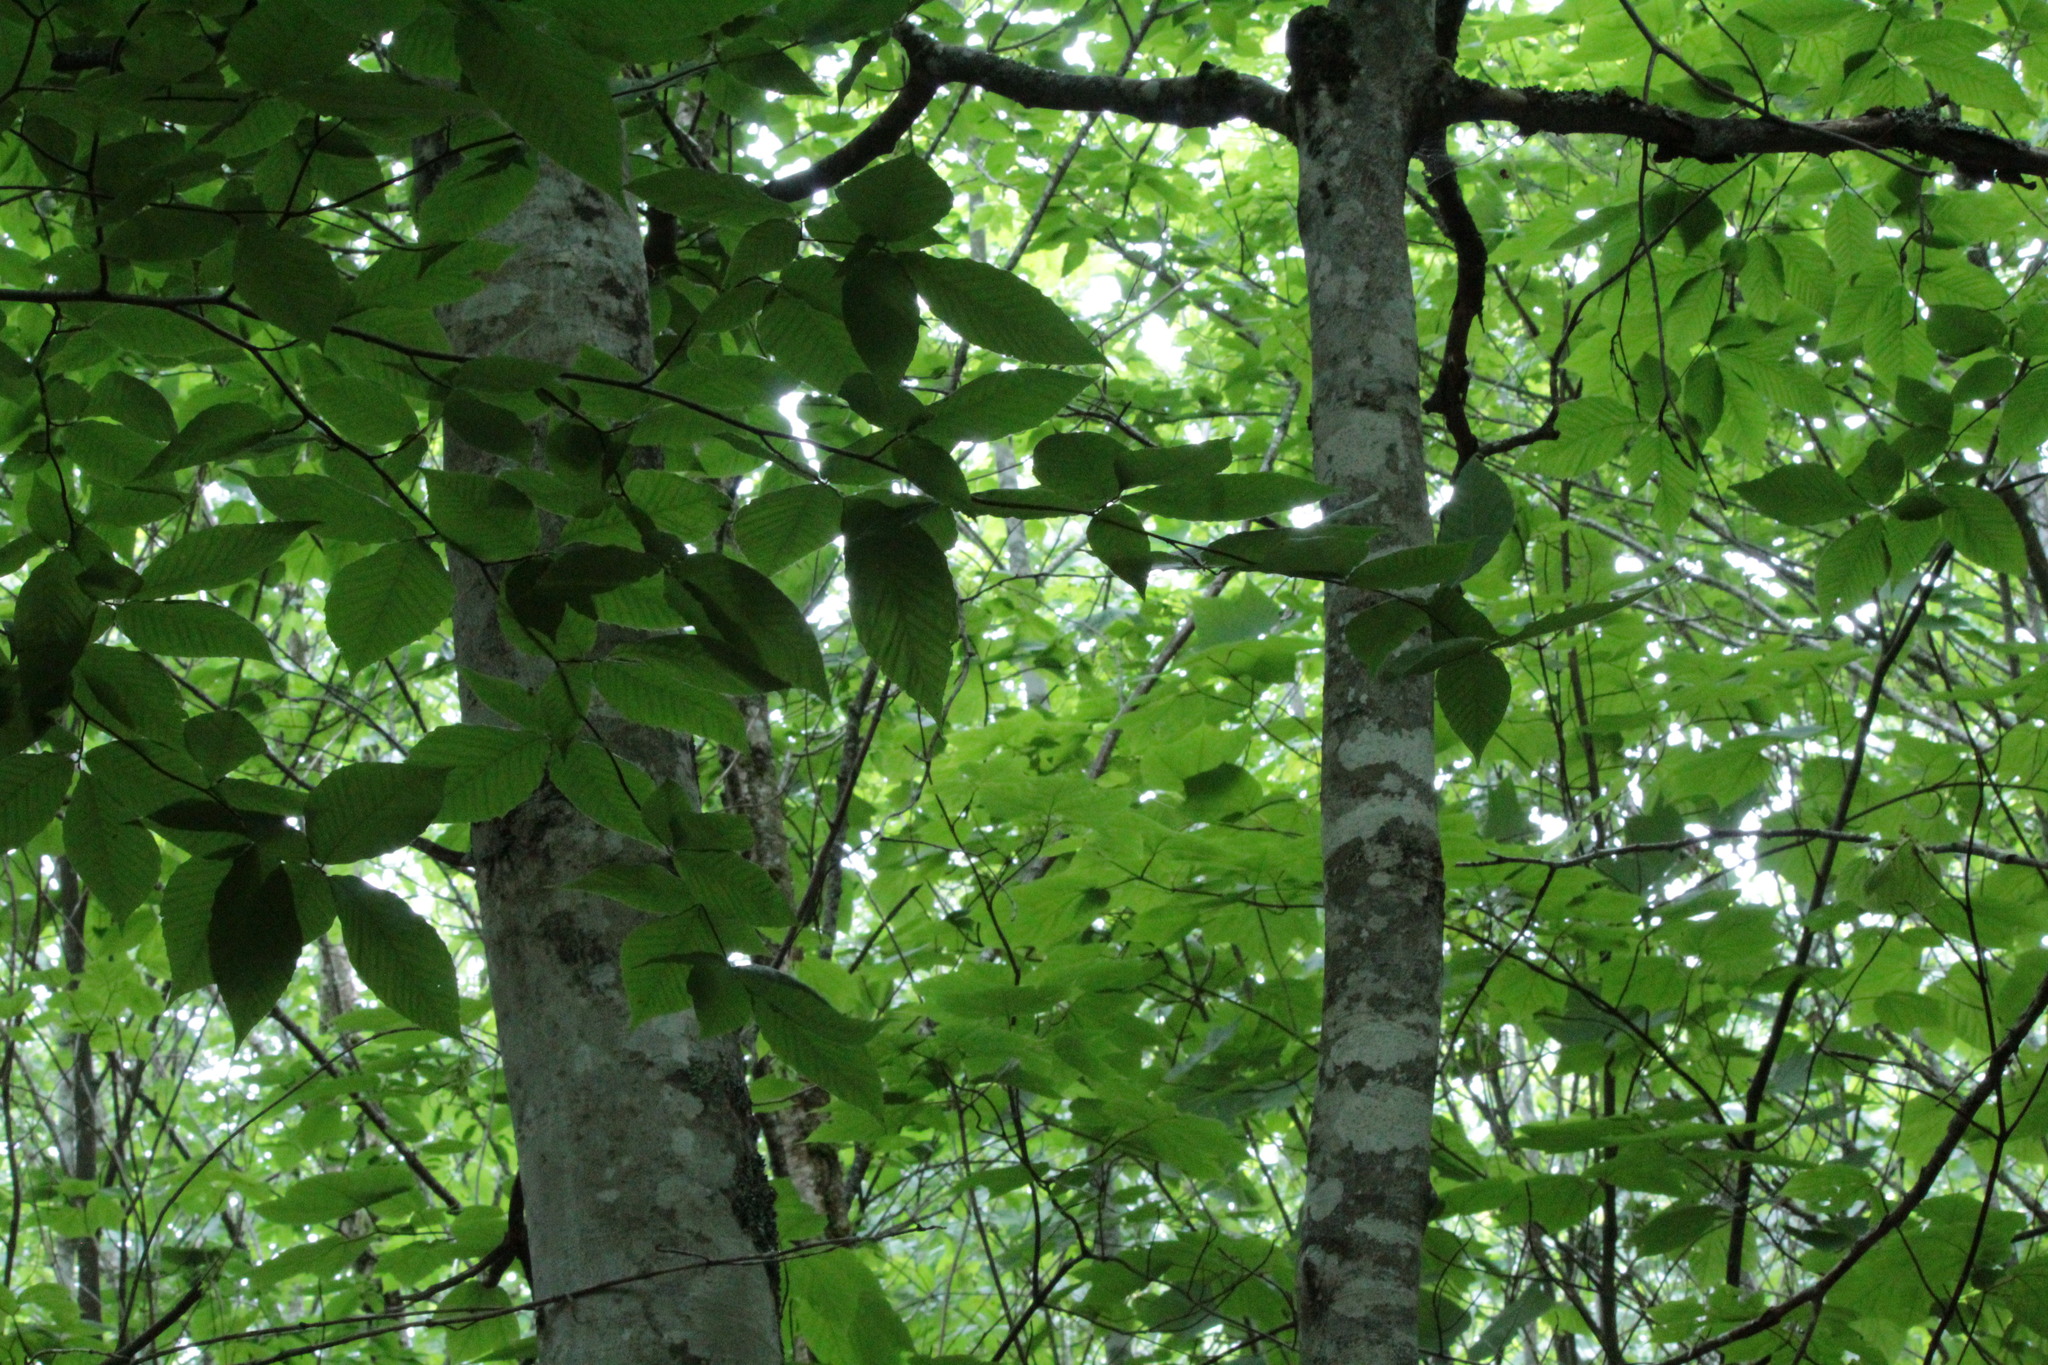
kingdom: Plantae
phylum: Tracheophyta
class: Magnoliopsida
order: Fagales
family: Fagaceae
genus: Fagus
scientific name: Fagus grandifolia
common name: American beech
